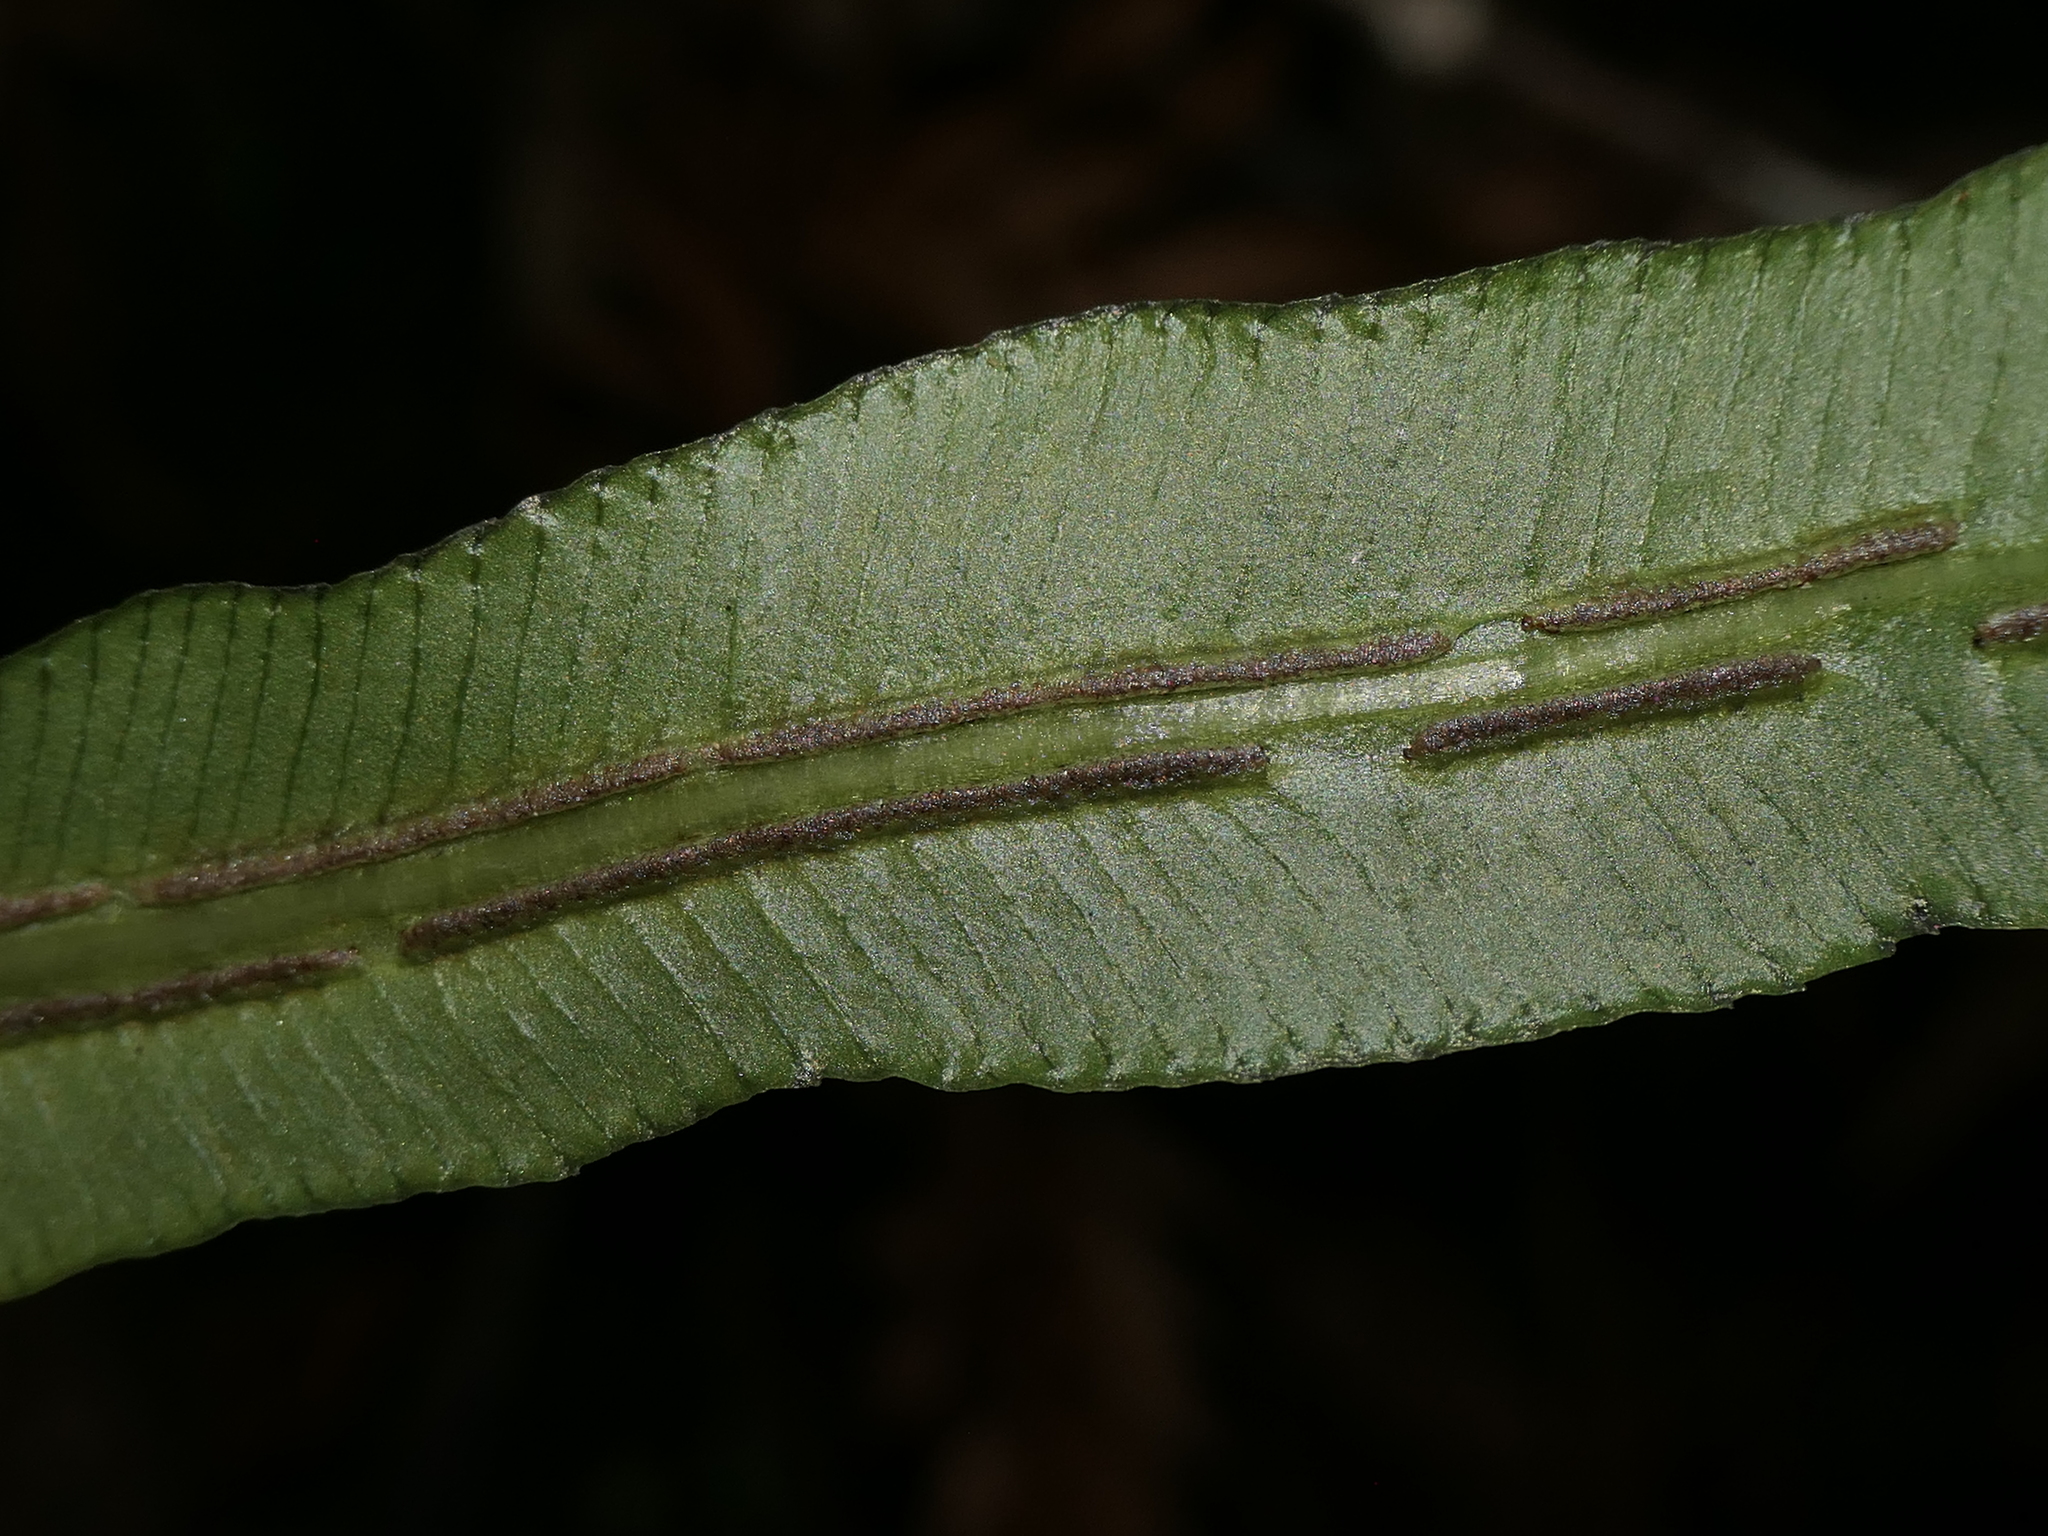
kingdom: Plantae
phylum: Tracheophyta
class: Polypodiopsida
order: Polypodiales
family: Blechnaceae
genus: Parablechnum
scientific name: Parablechnum gregsonii
